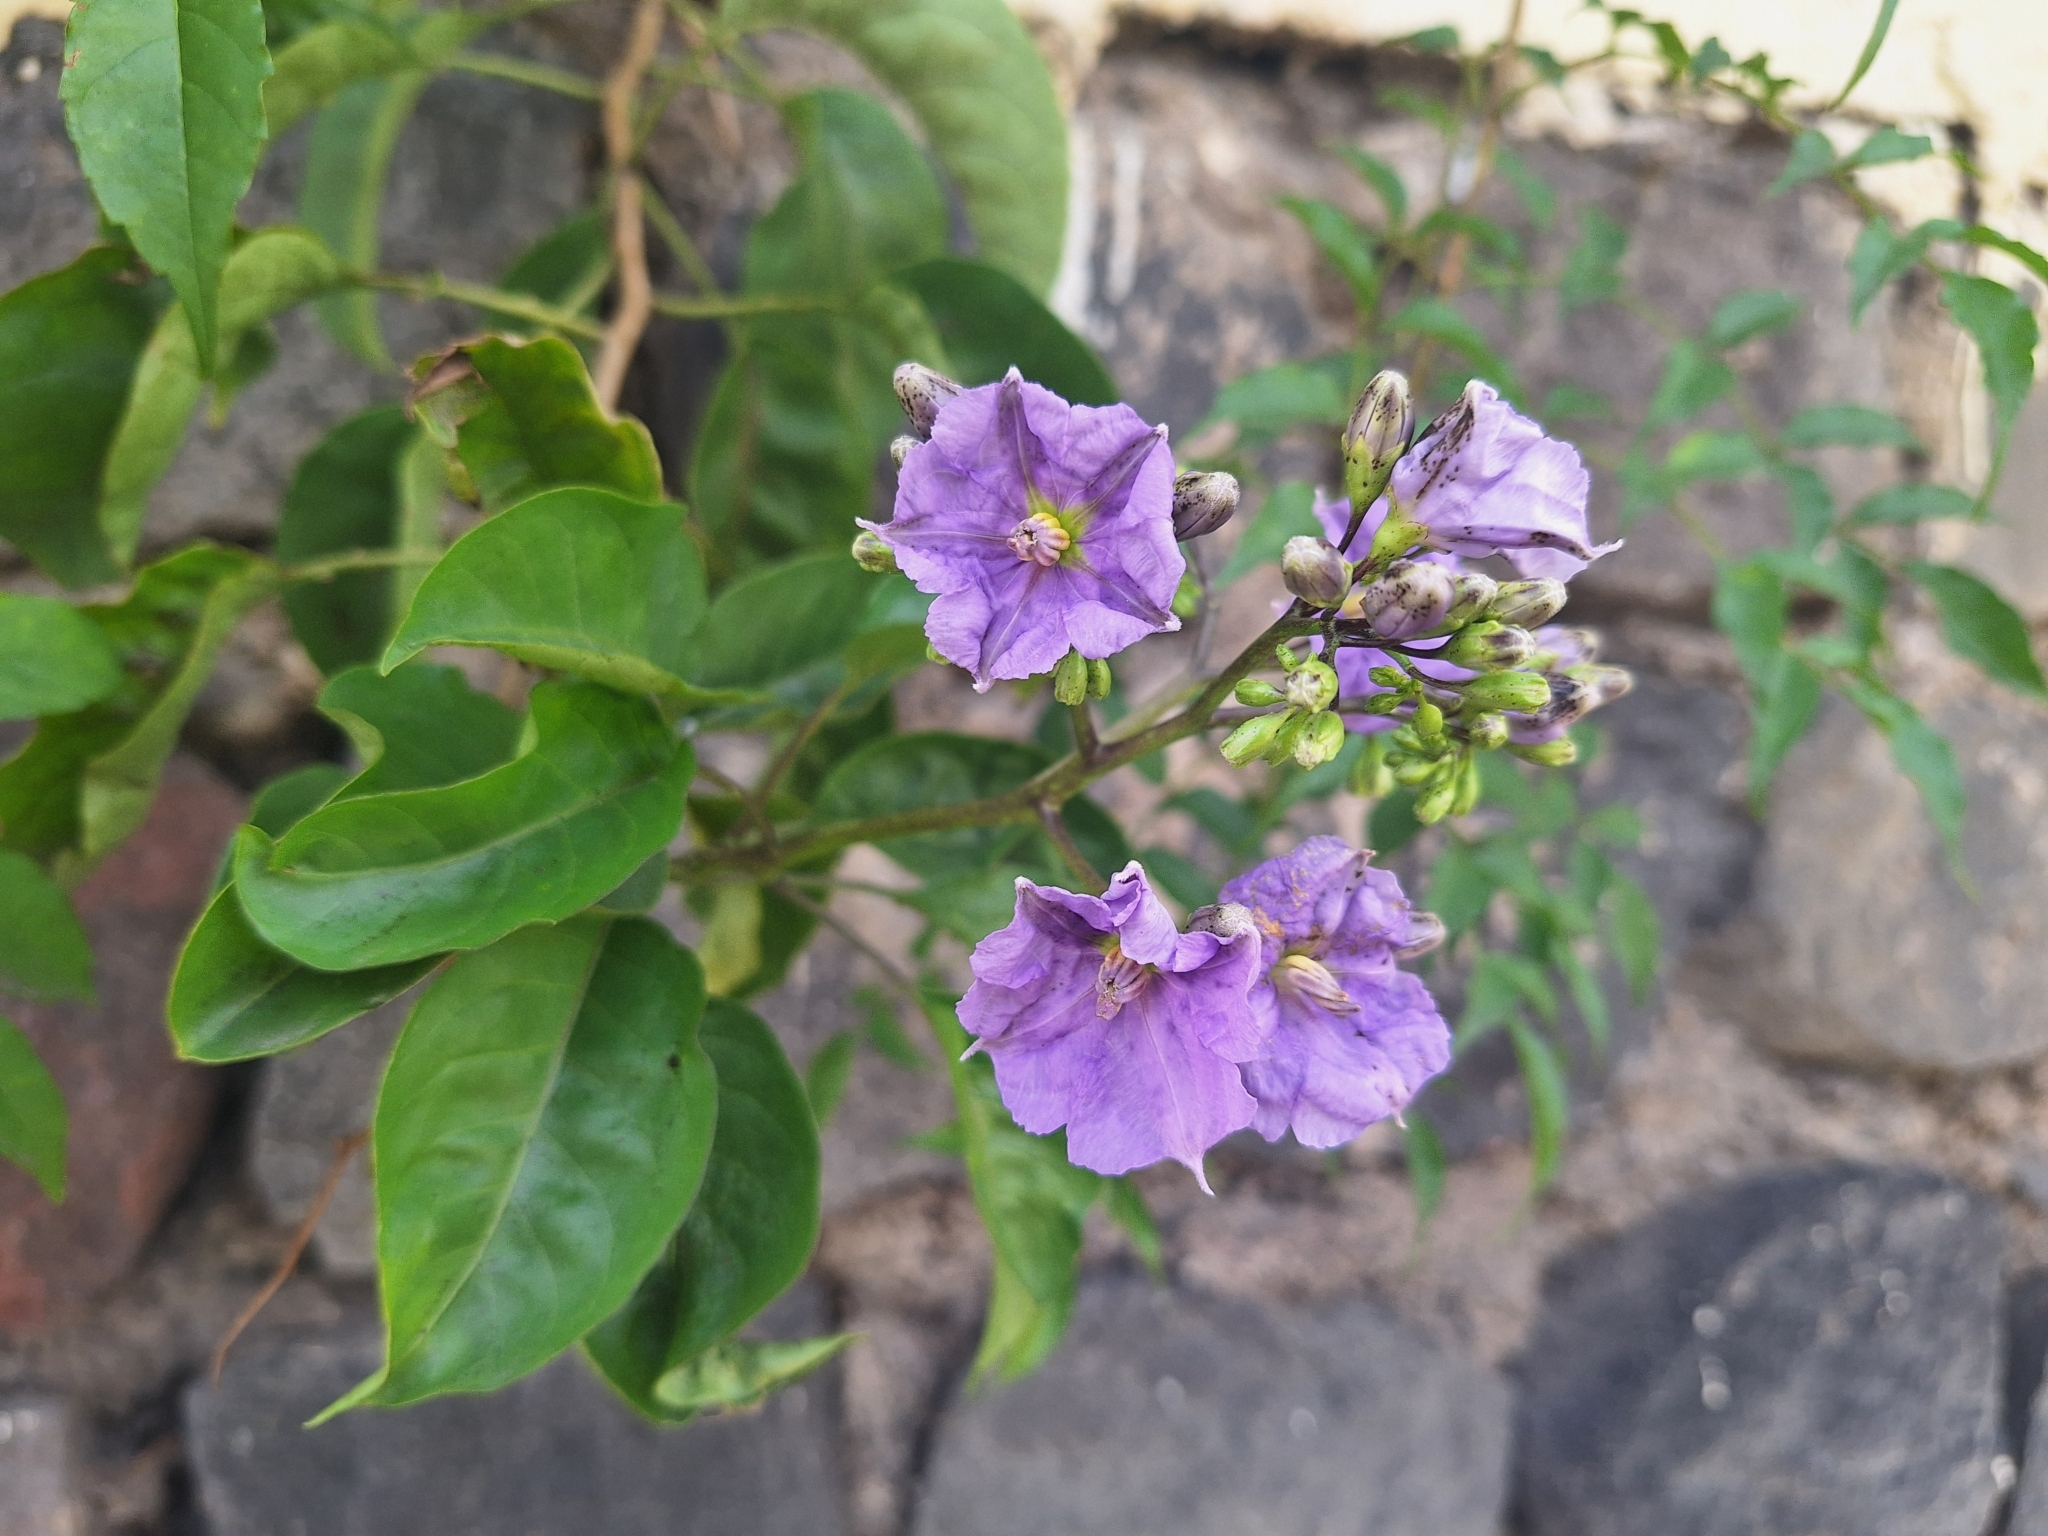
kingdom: Plantae
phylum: Tracheophyta
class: Magnoliopsida
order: Solanales
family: Solanaceae
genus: Solanum
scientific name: Solanum wendlandii
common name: Costa rican nightshade
